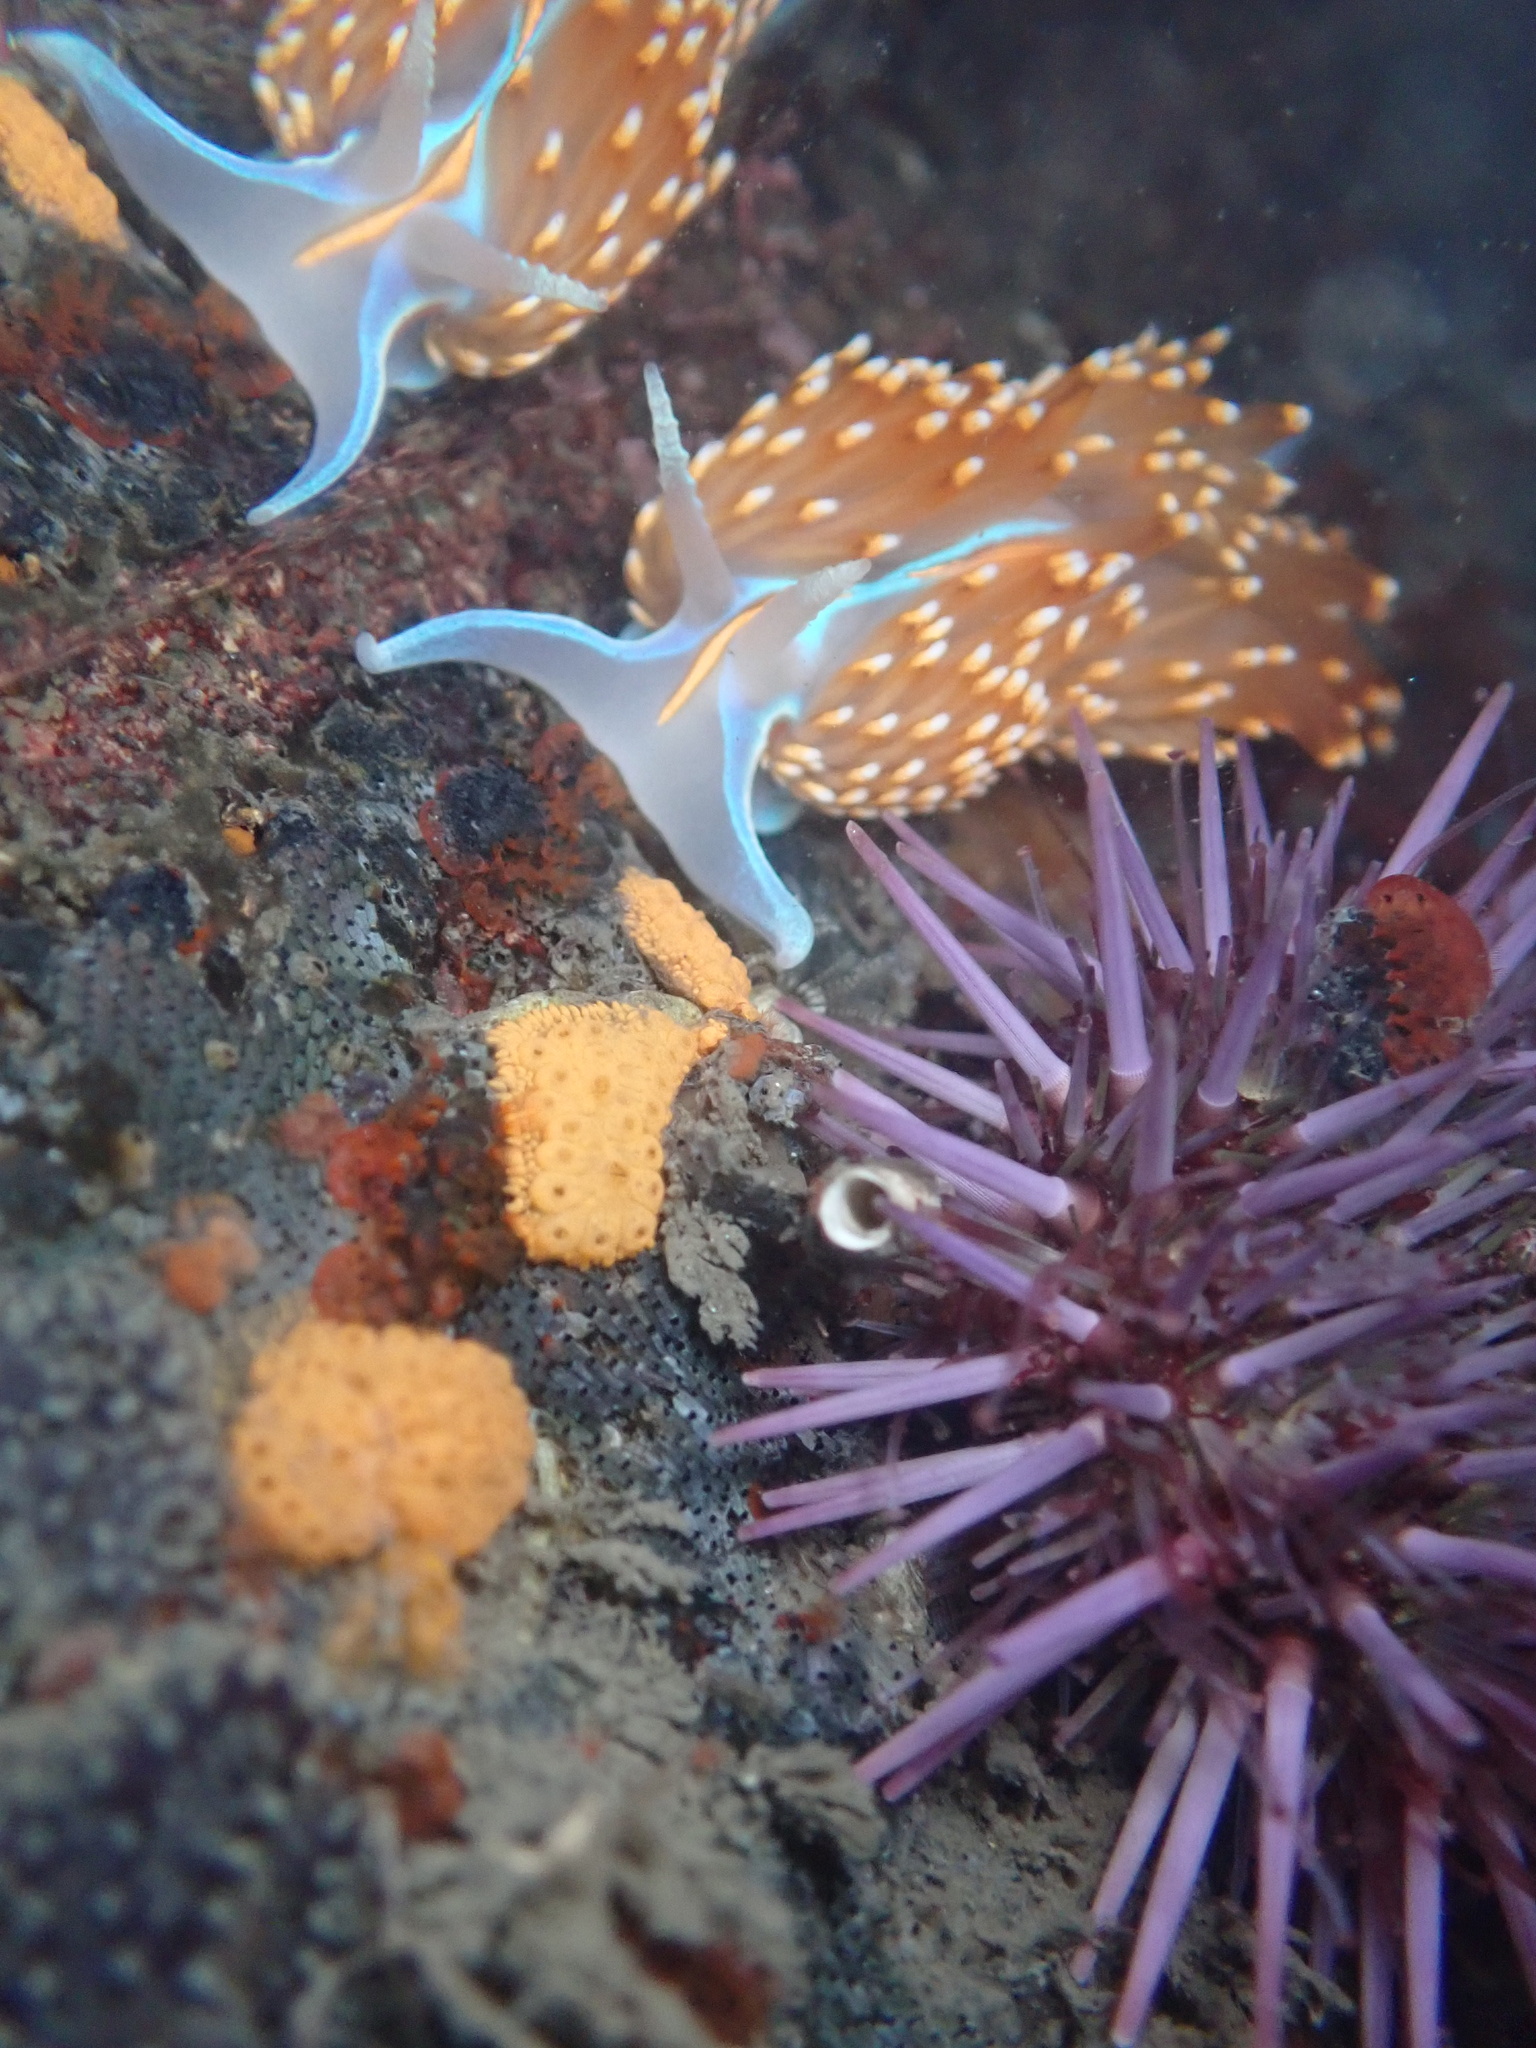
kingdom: Animalia
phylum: Mollusca
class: Gastropoda
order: Nudibranchia
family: Myrrhinidae
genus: Hermissenda
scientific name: Hermissenda opalescens
